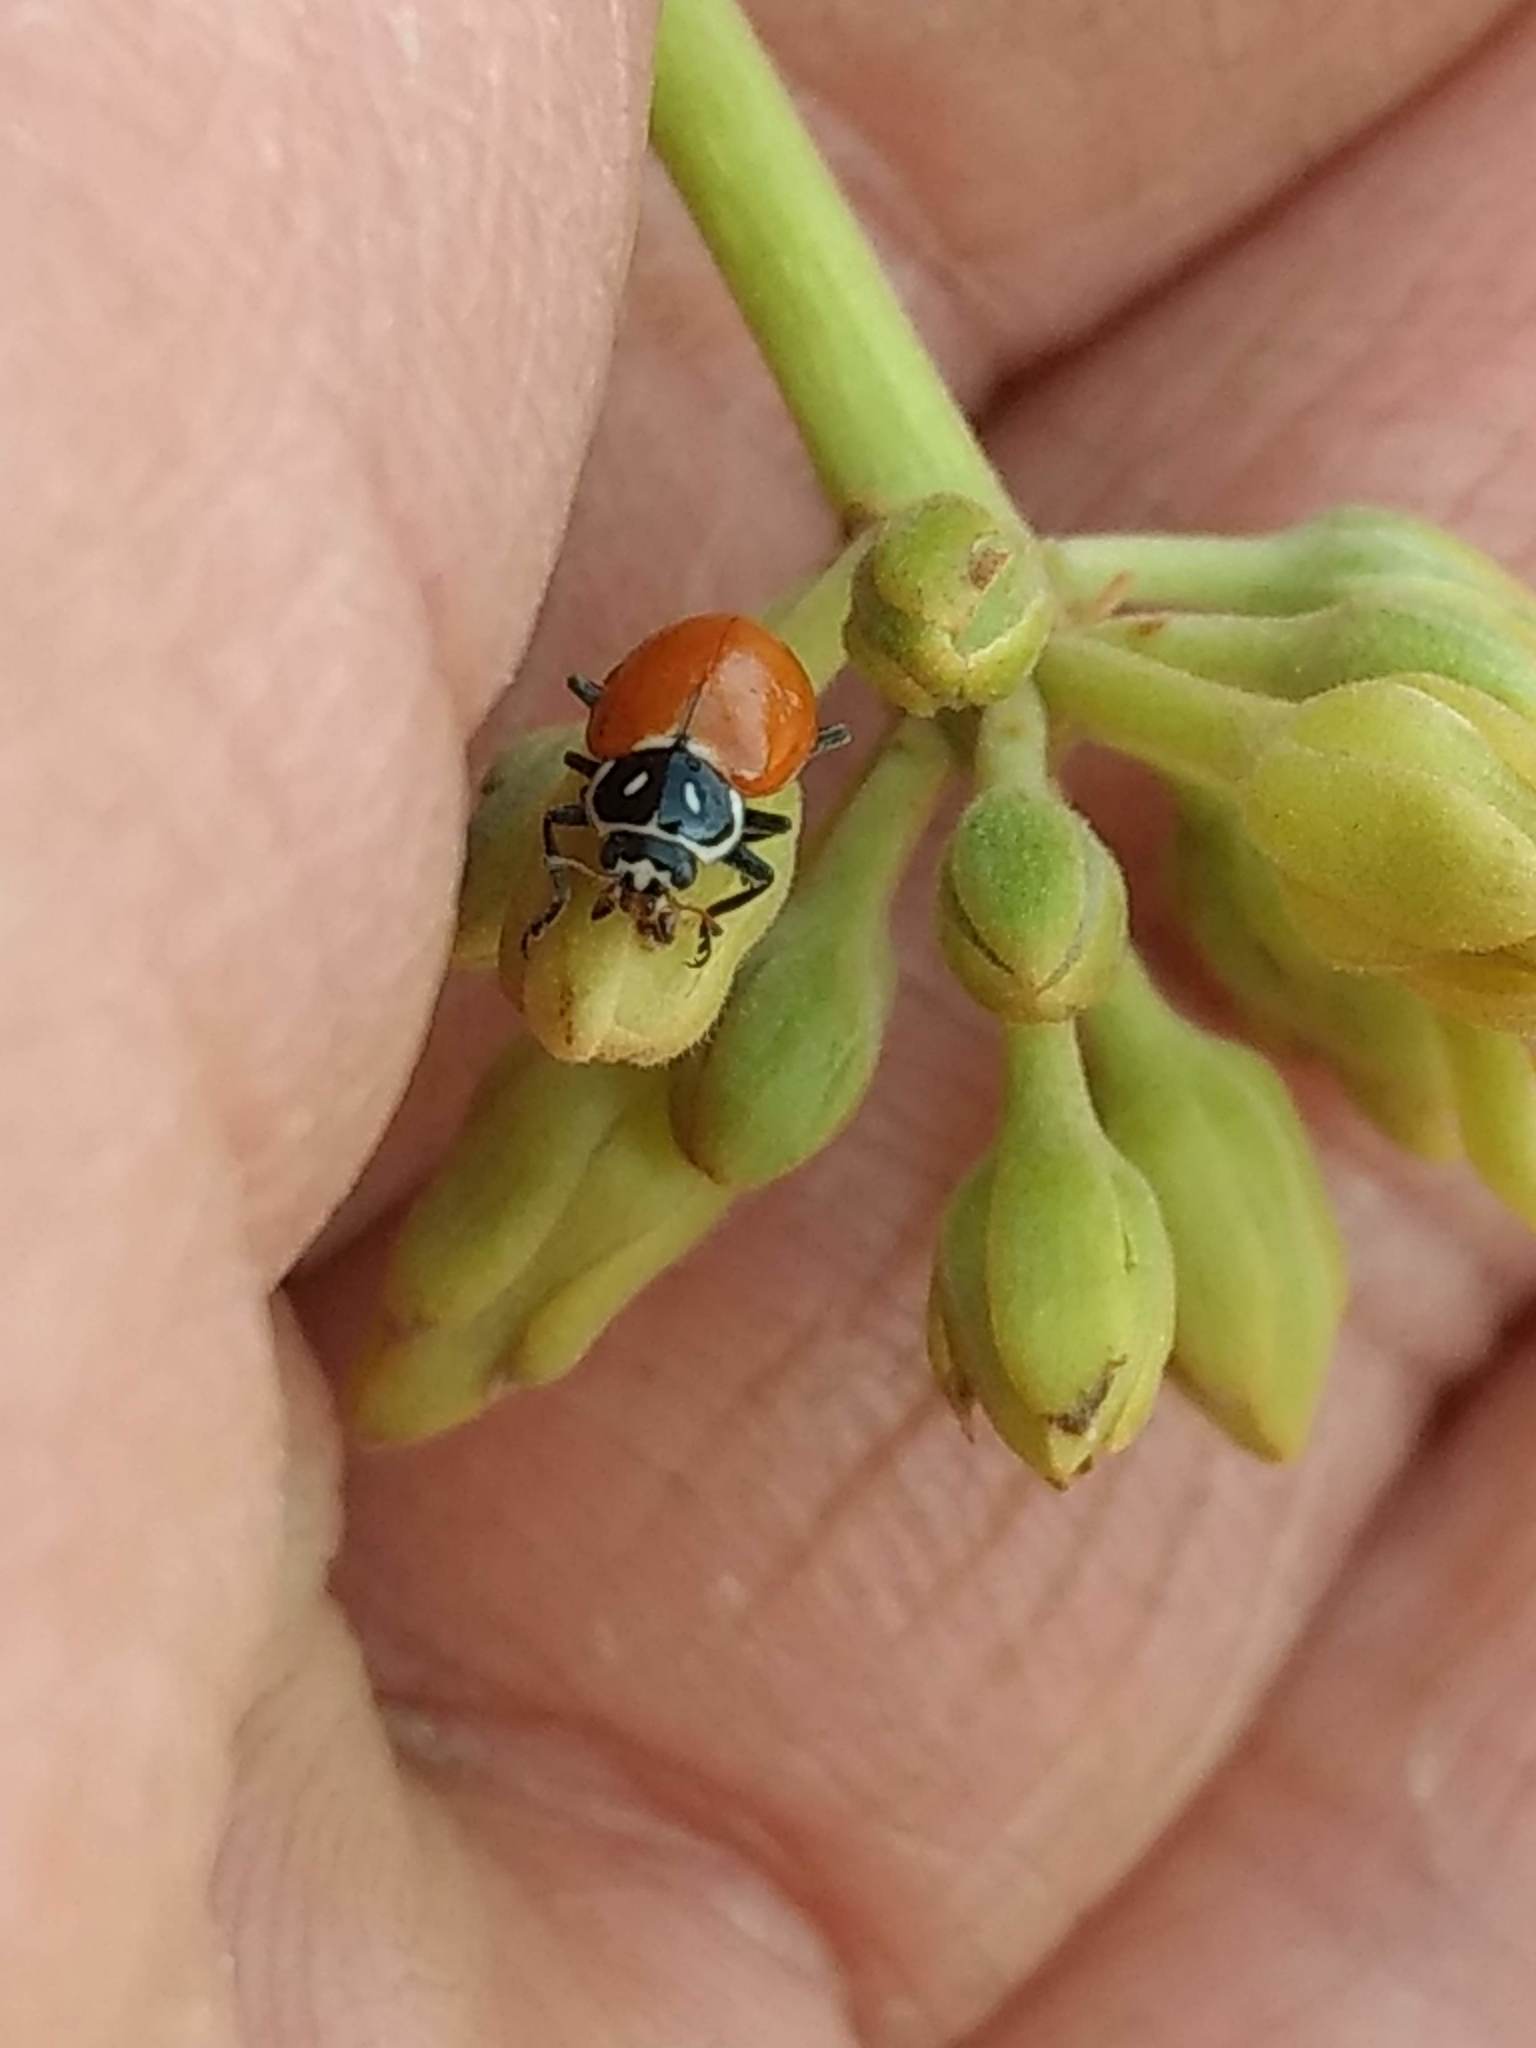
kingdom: Animalia
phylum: Arthropoda
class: Insecta
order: Coleoptera
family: Coccinellidae
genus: Hippodamia
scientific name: Hippodamia convergens
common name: Convergent lady beetle
